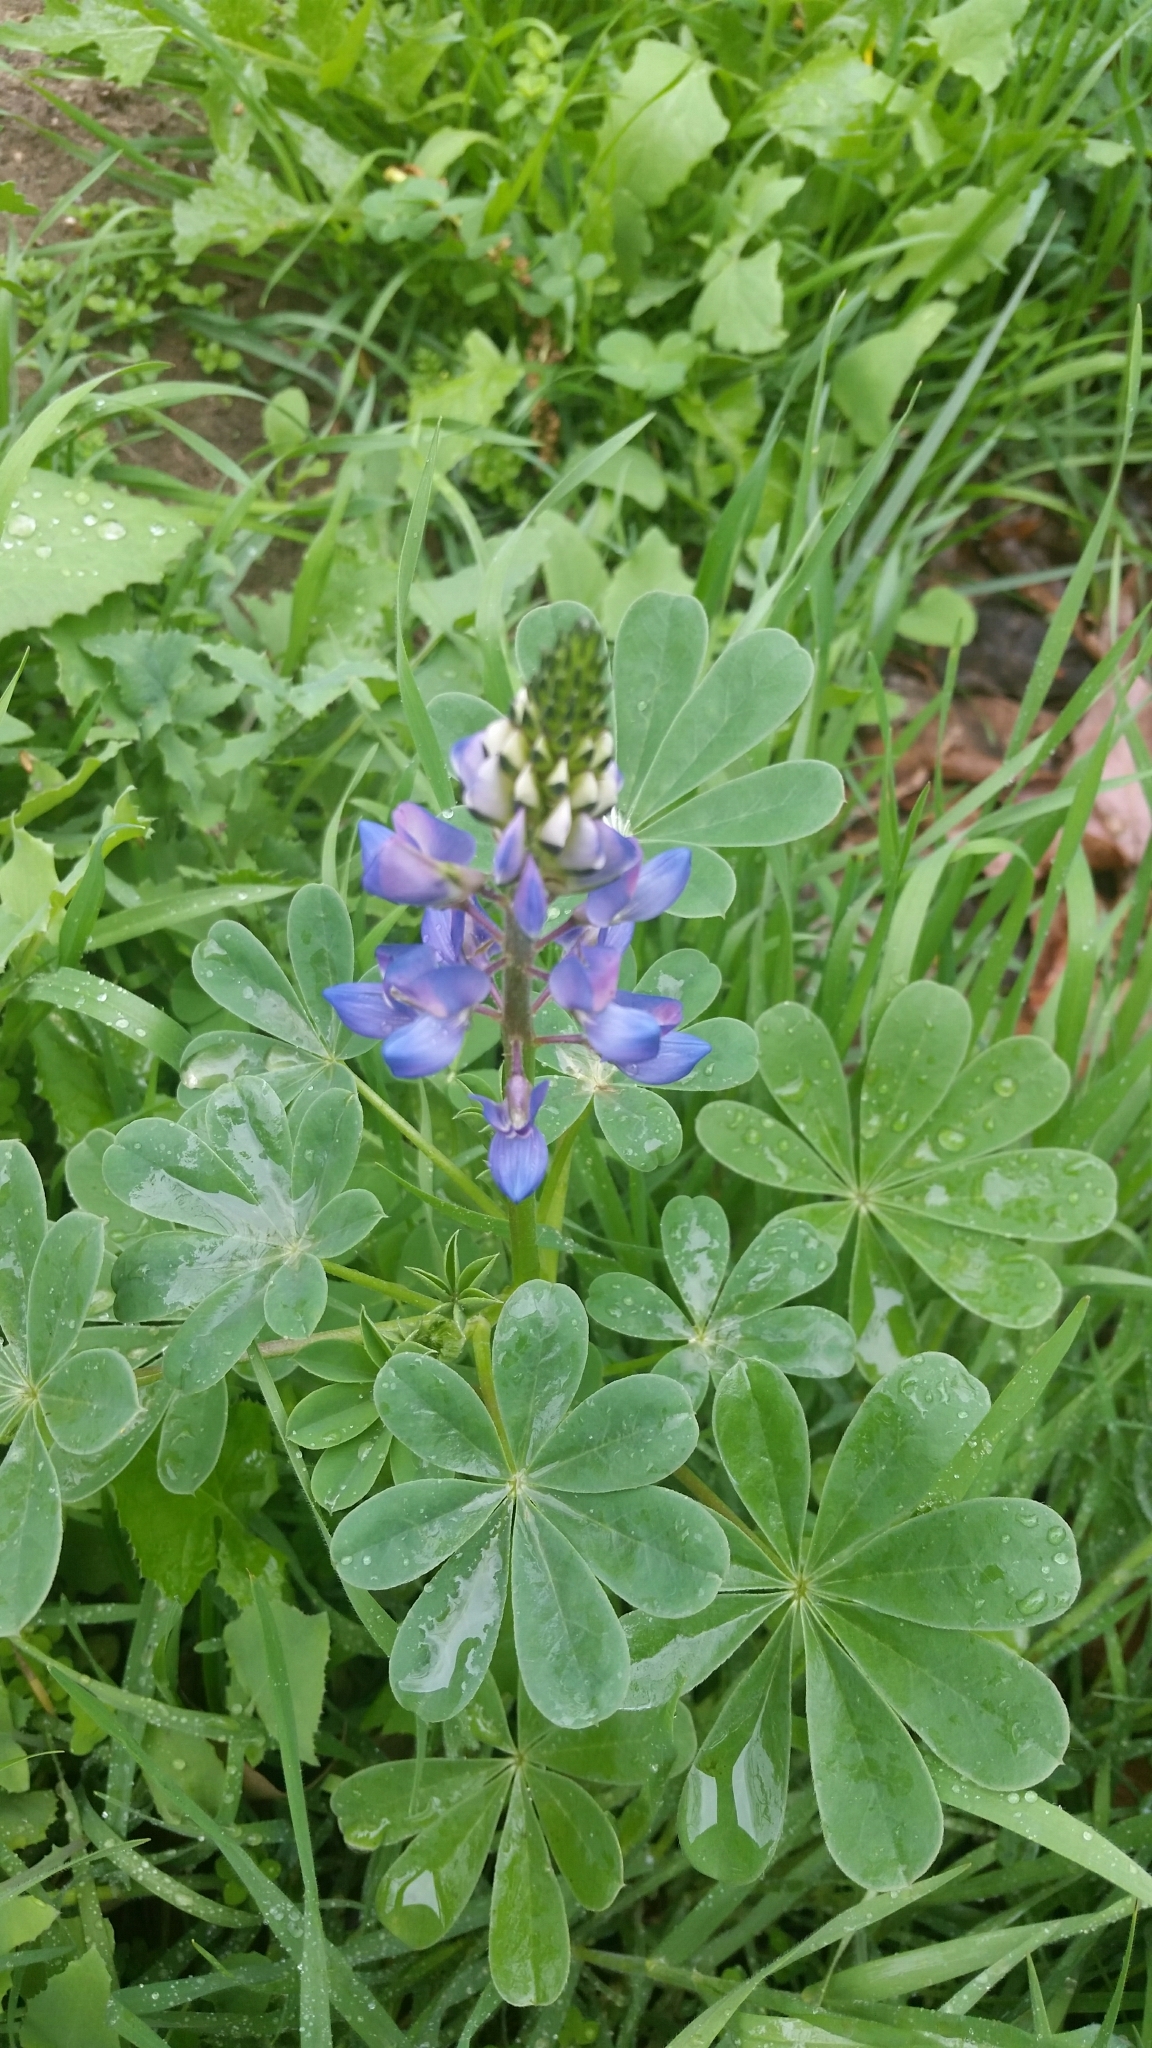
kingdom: Plantae
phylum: Tracheophyta
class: Magnoliopsida
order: Fabales
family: Fabaceae
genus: Lupinus
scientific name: Lupinus succulentus
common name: Arroyo lupine
